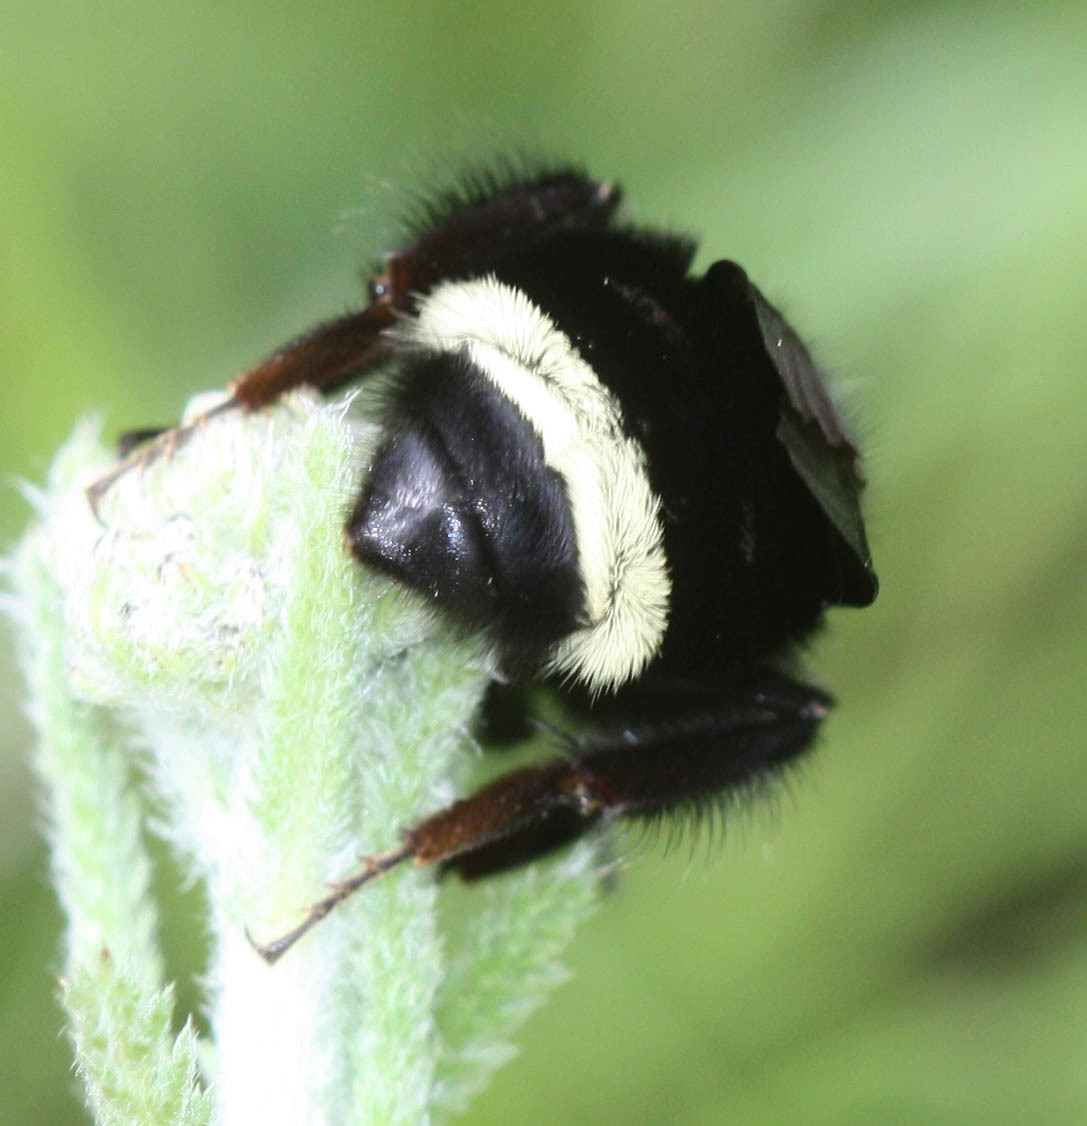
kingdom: Animalia
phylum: Arthropoda
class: Insecta
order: Hymenoptera
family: Apidae
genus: Bombus
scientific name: Bombus vosnesenskii
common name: Vosnesensky bumble bee
